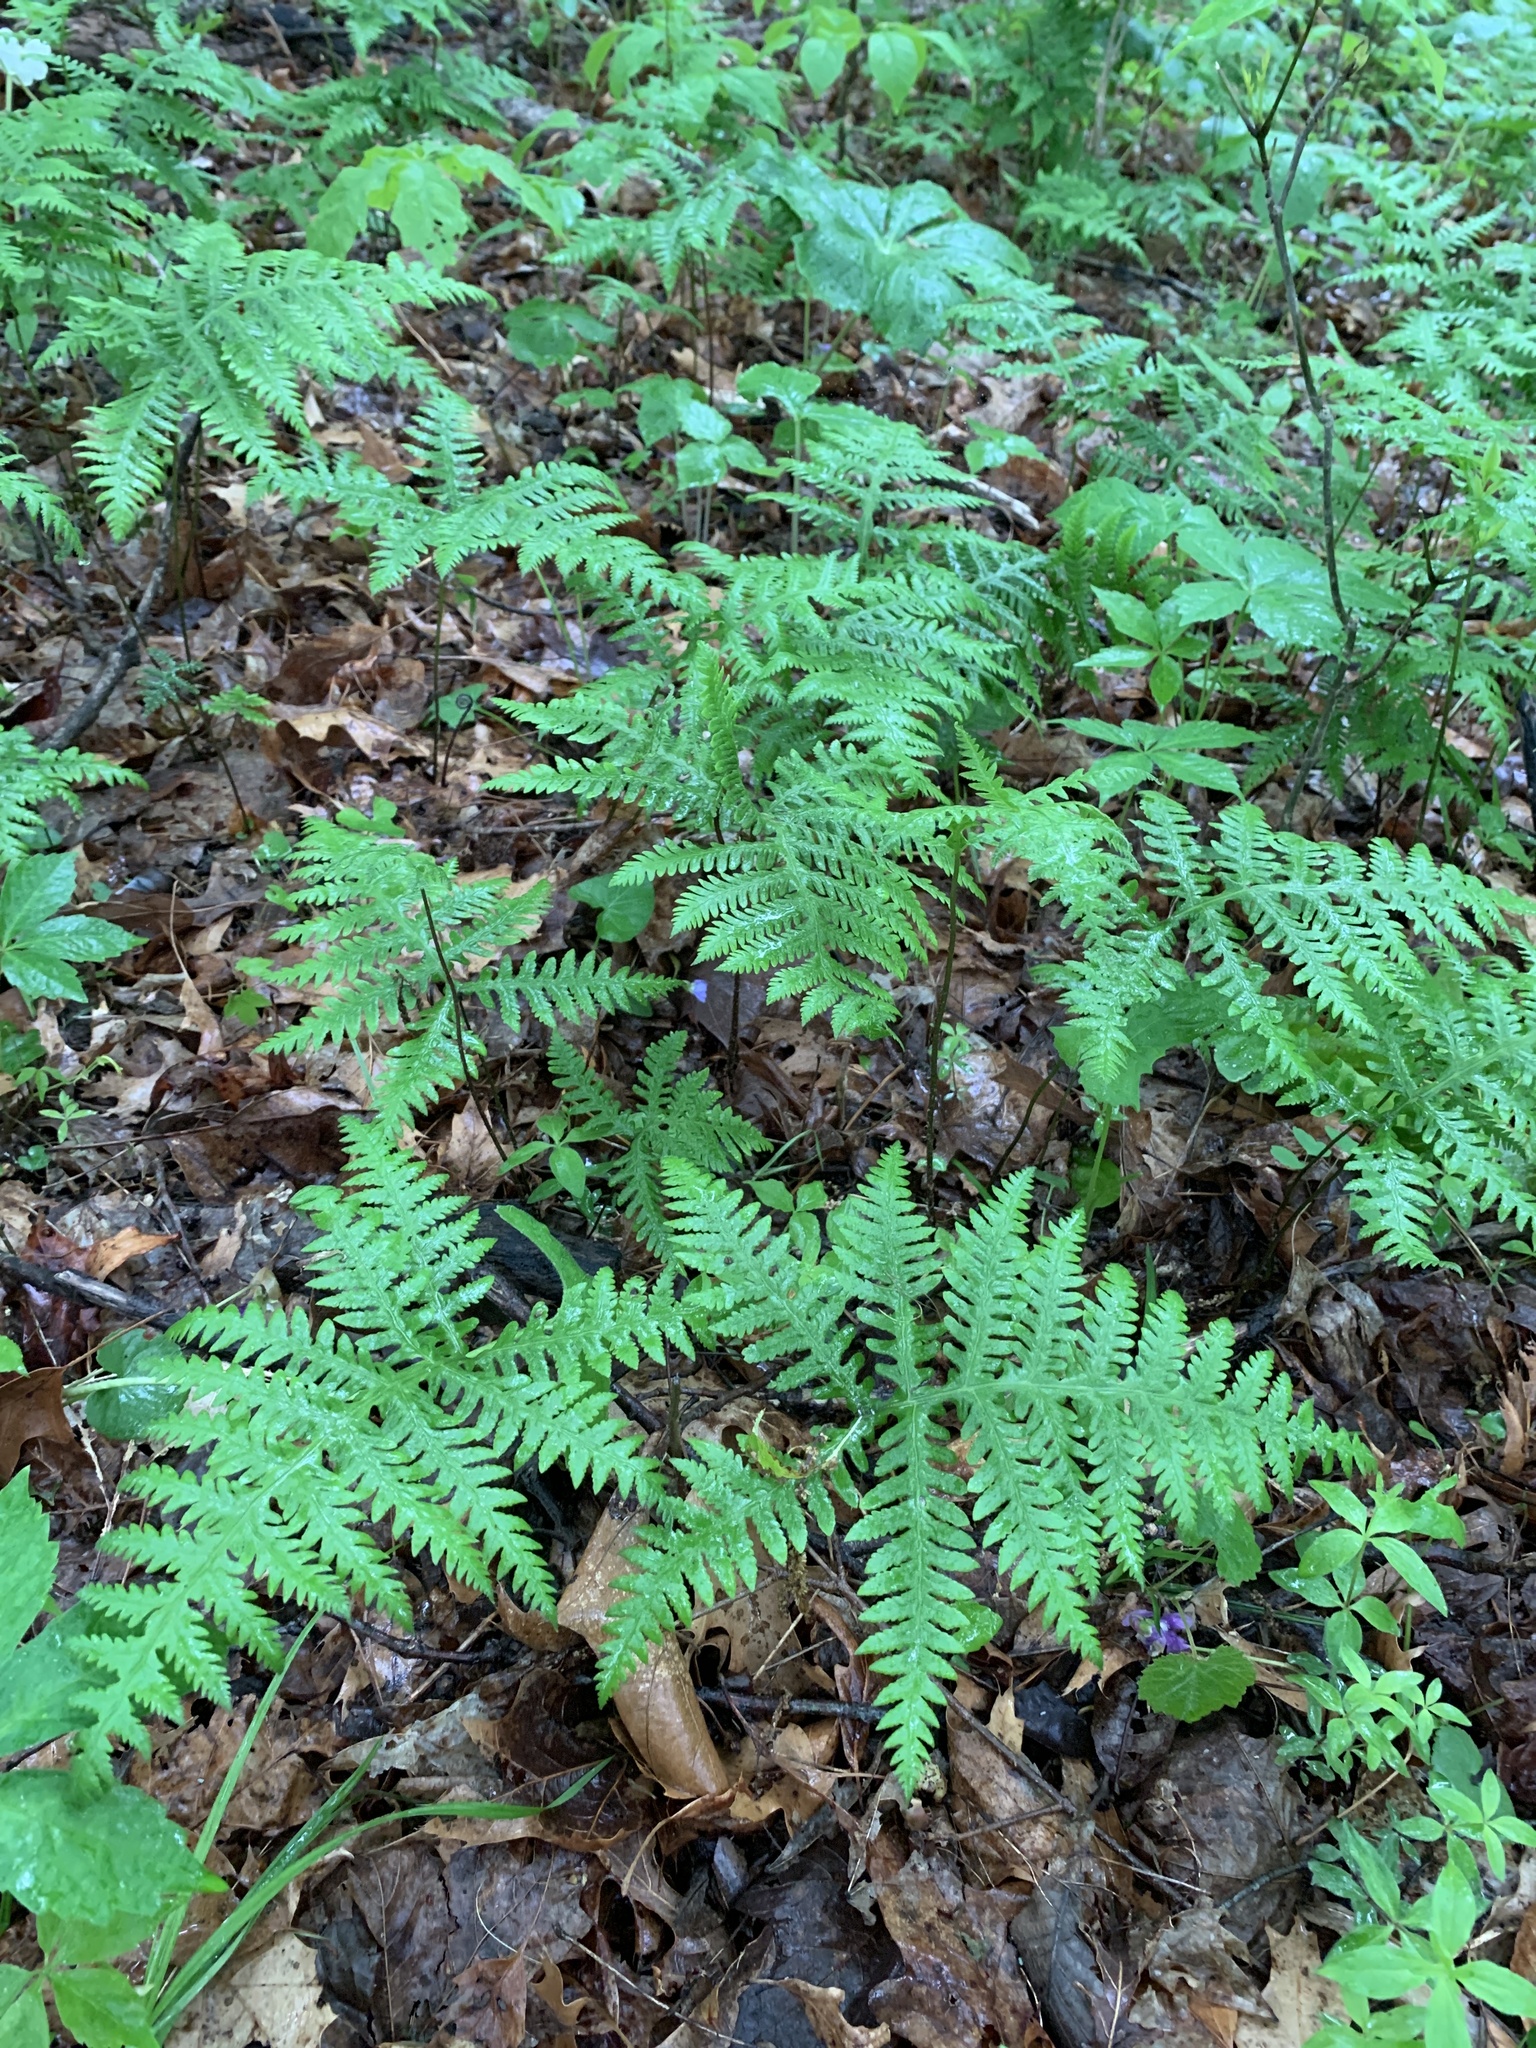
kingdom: Plantae
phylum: Tracheophyta
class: Polypodiopsida
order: Polypodiales
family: Thelypteridaceae
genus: Phegopteris
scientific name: Phegopteris hexagonoptera
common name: Broad beech fern
